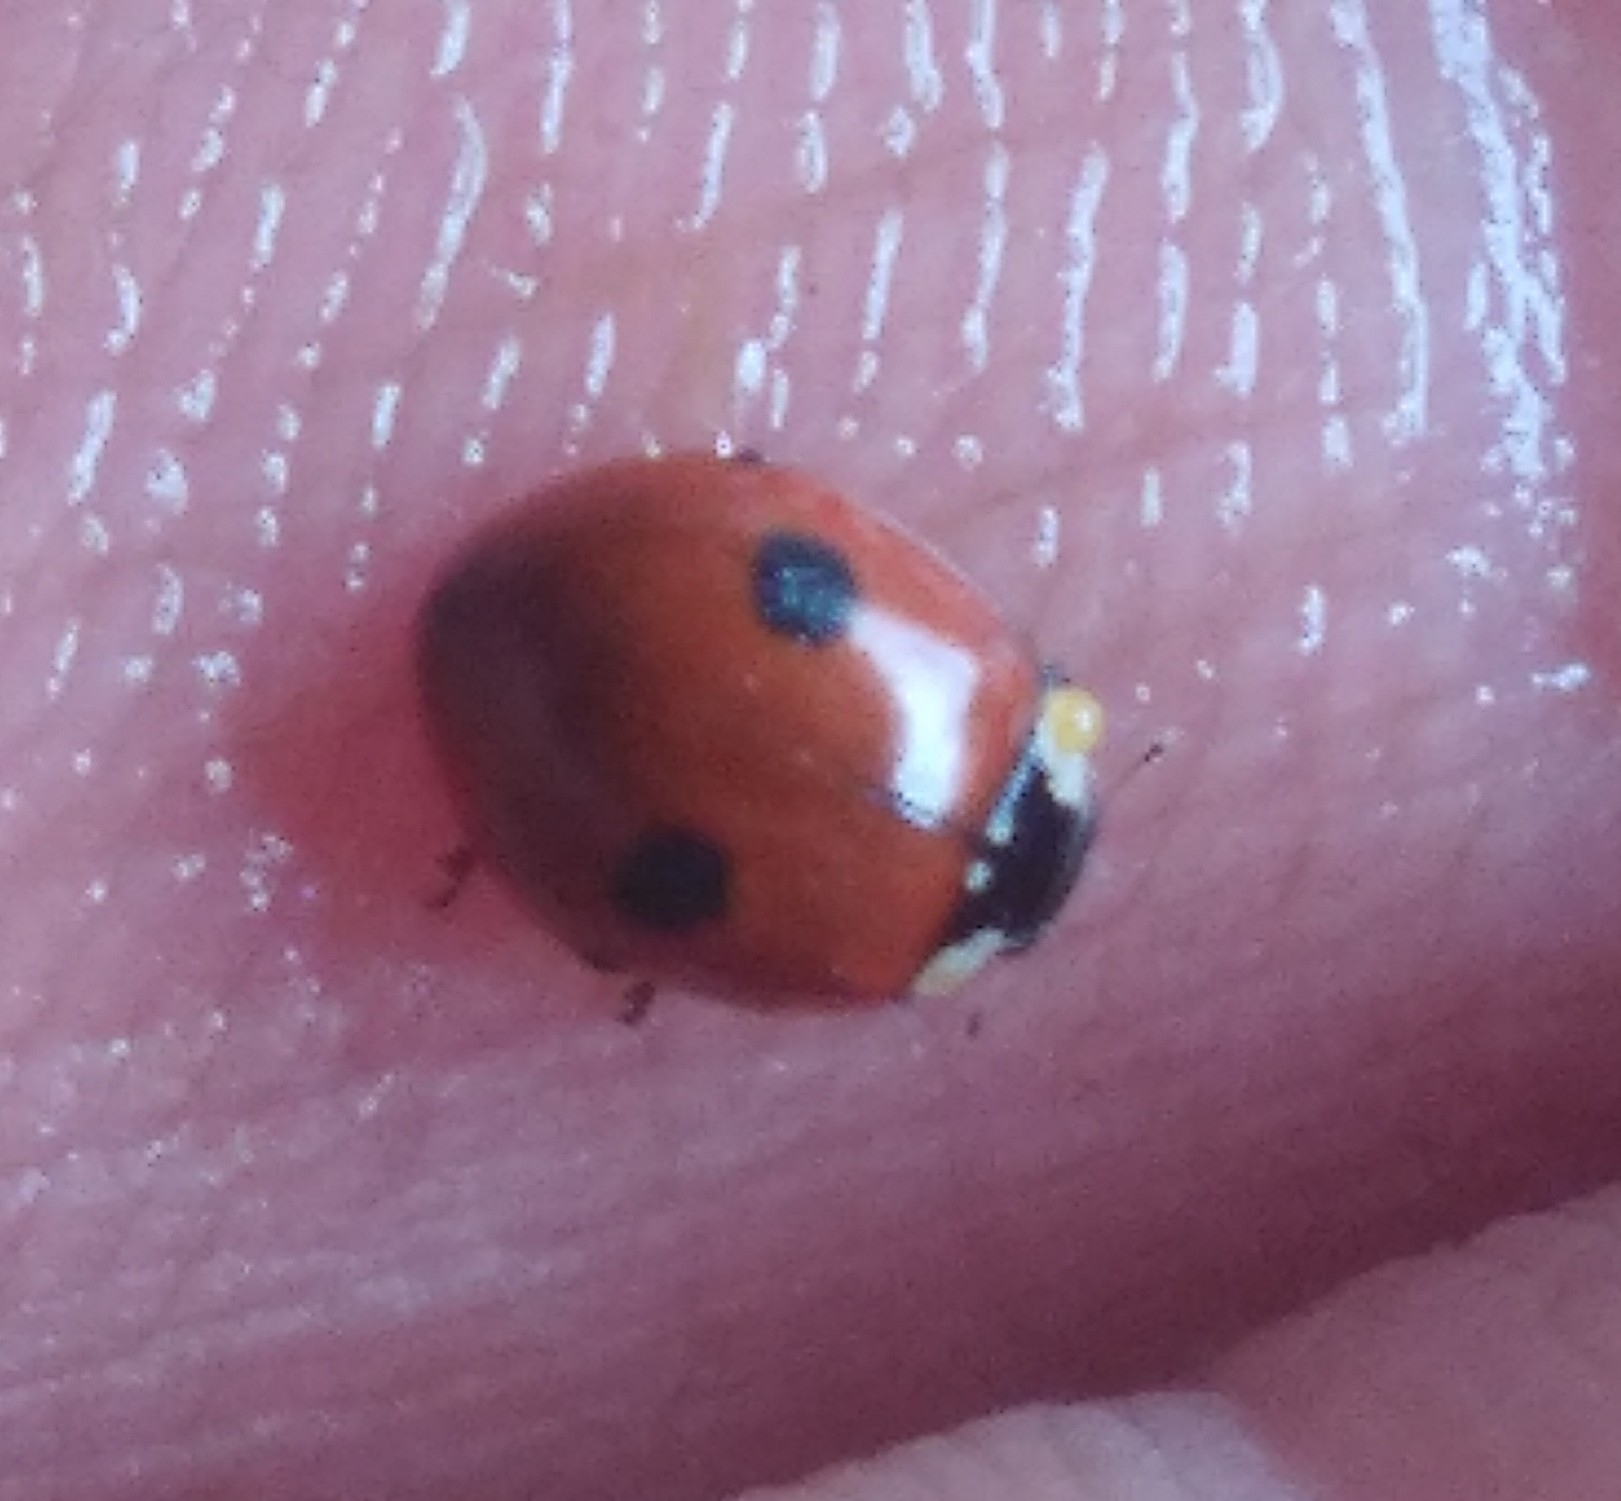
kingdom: Animalia
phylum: Arthropoda
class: Insecta
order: Coleoptera
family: Coccinellidae
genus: Adalia
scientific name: Adalia bipunctata
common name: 2-spot ladybird
